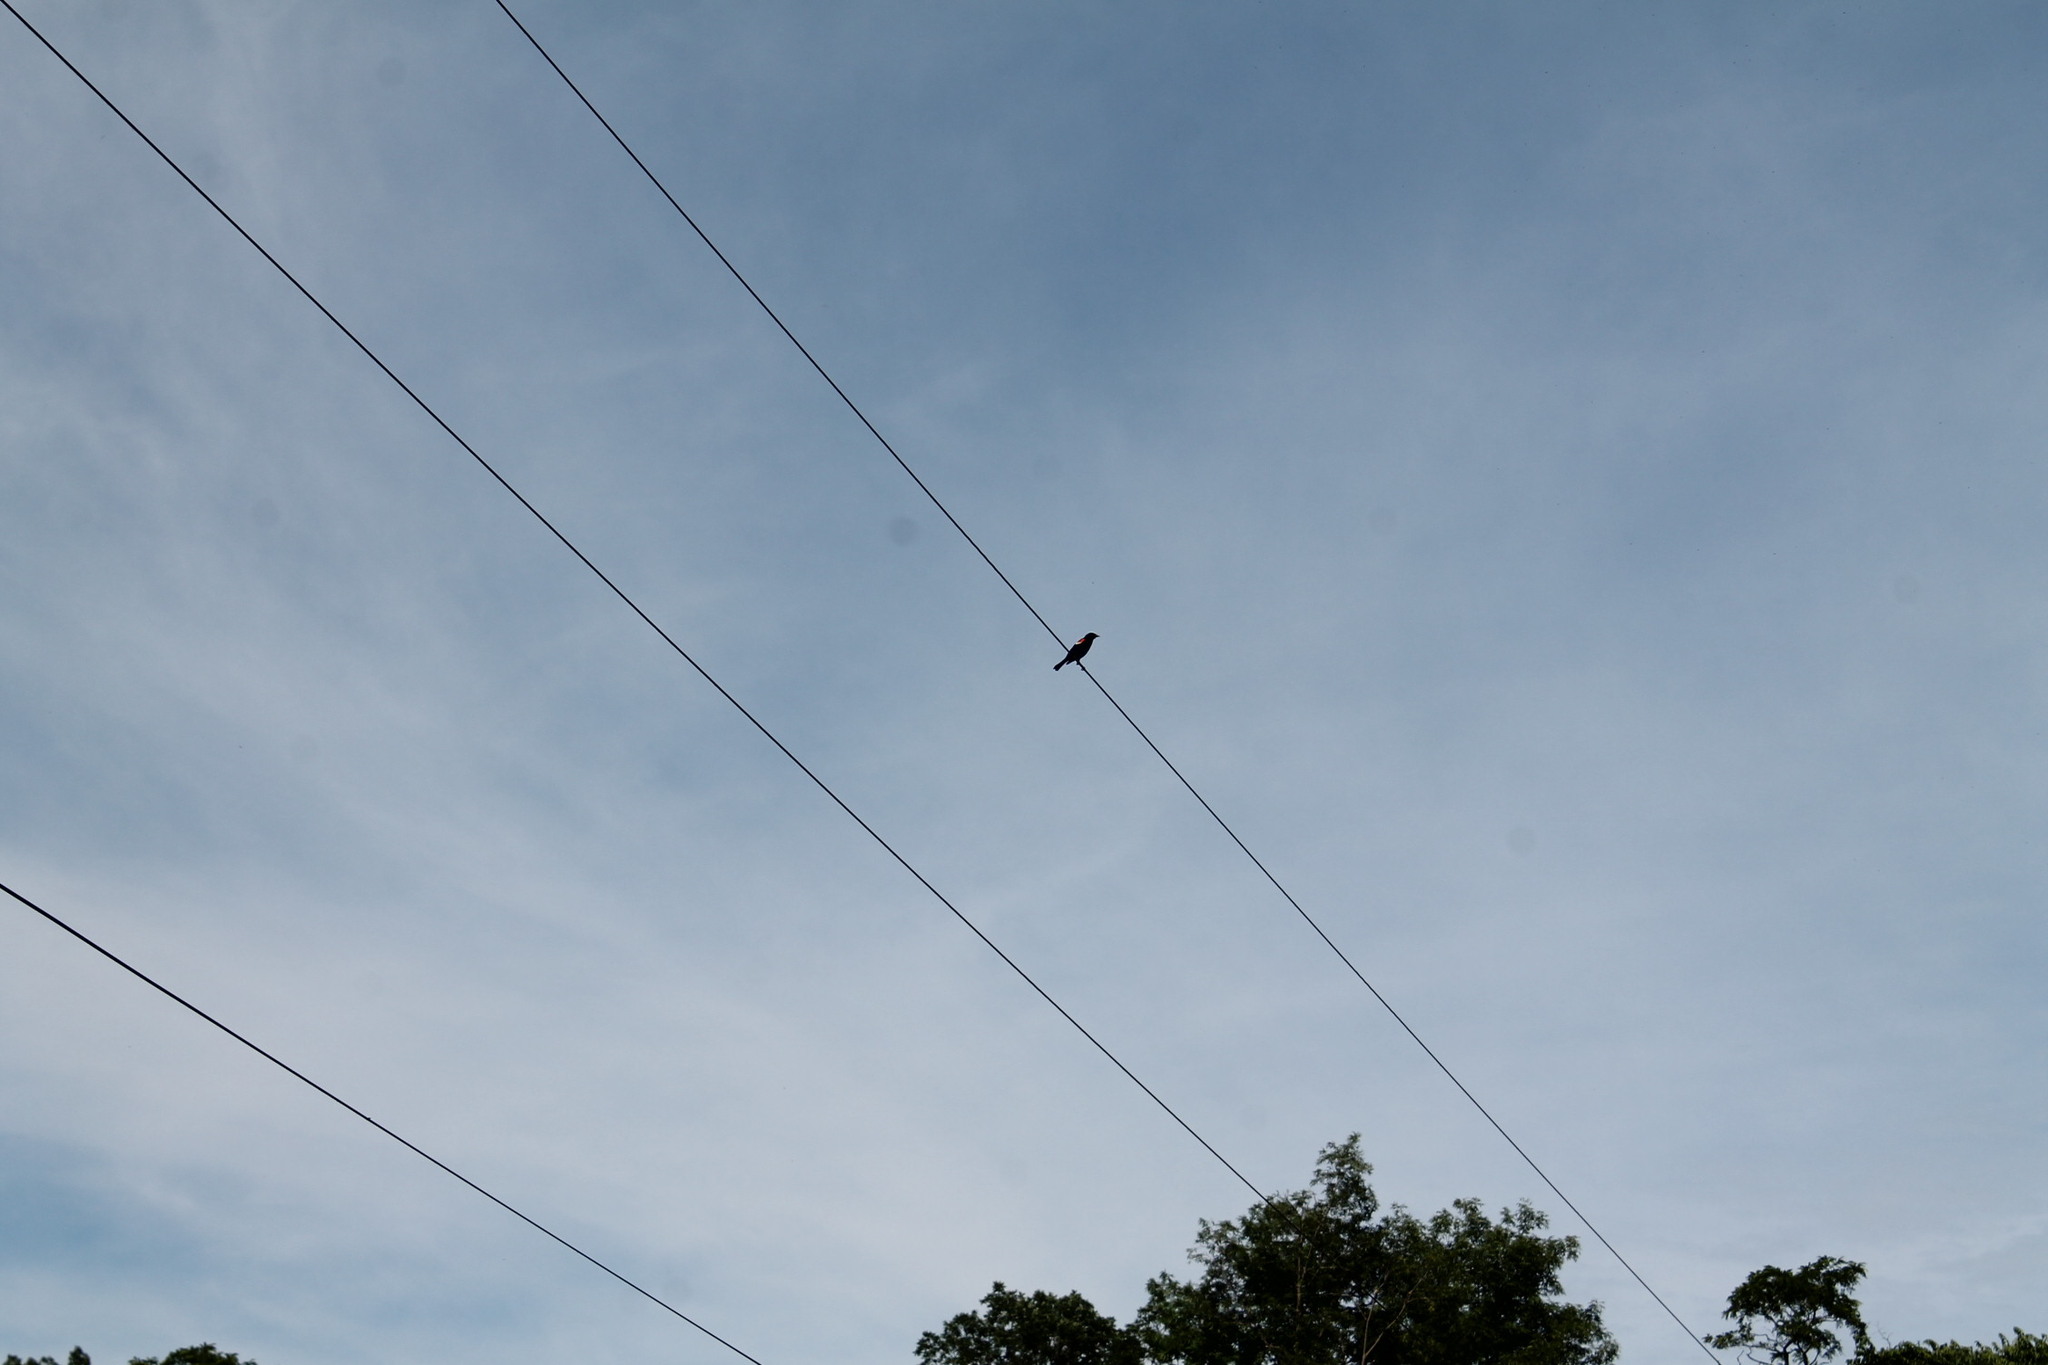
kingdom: Animalia
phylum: Chordata
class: Aves
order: Passeriformes
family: Icteridae
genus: Agelaius
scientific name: Agelaius phoeniceus
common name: Red-winged blackbird
